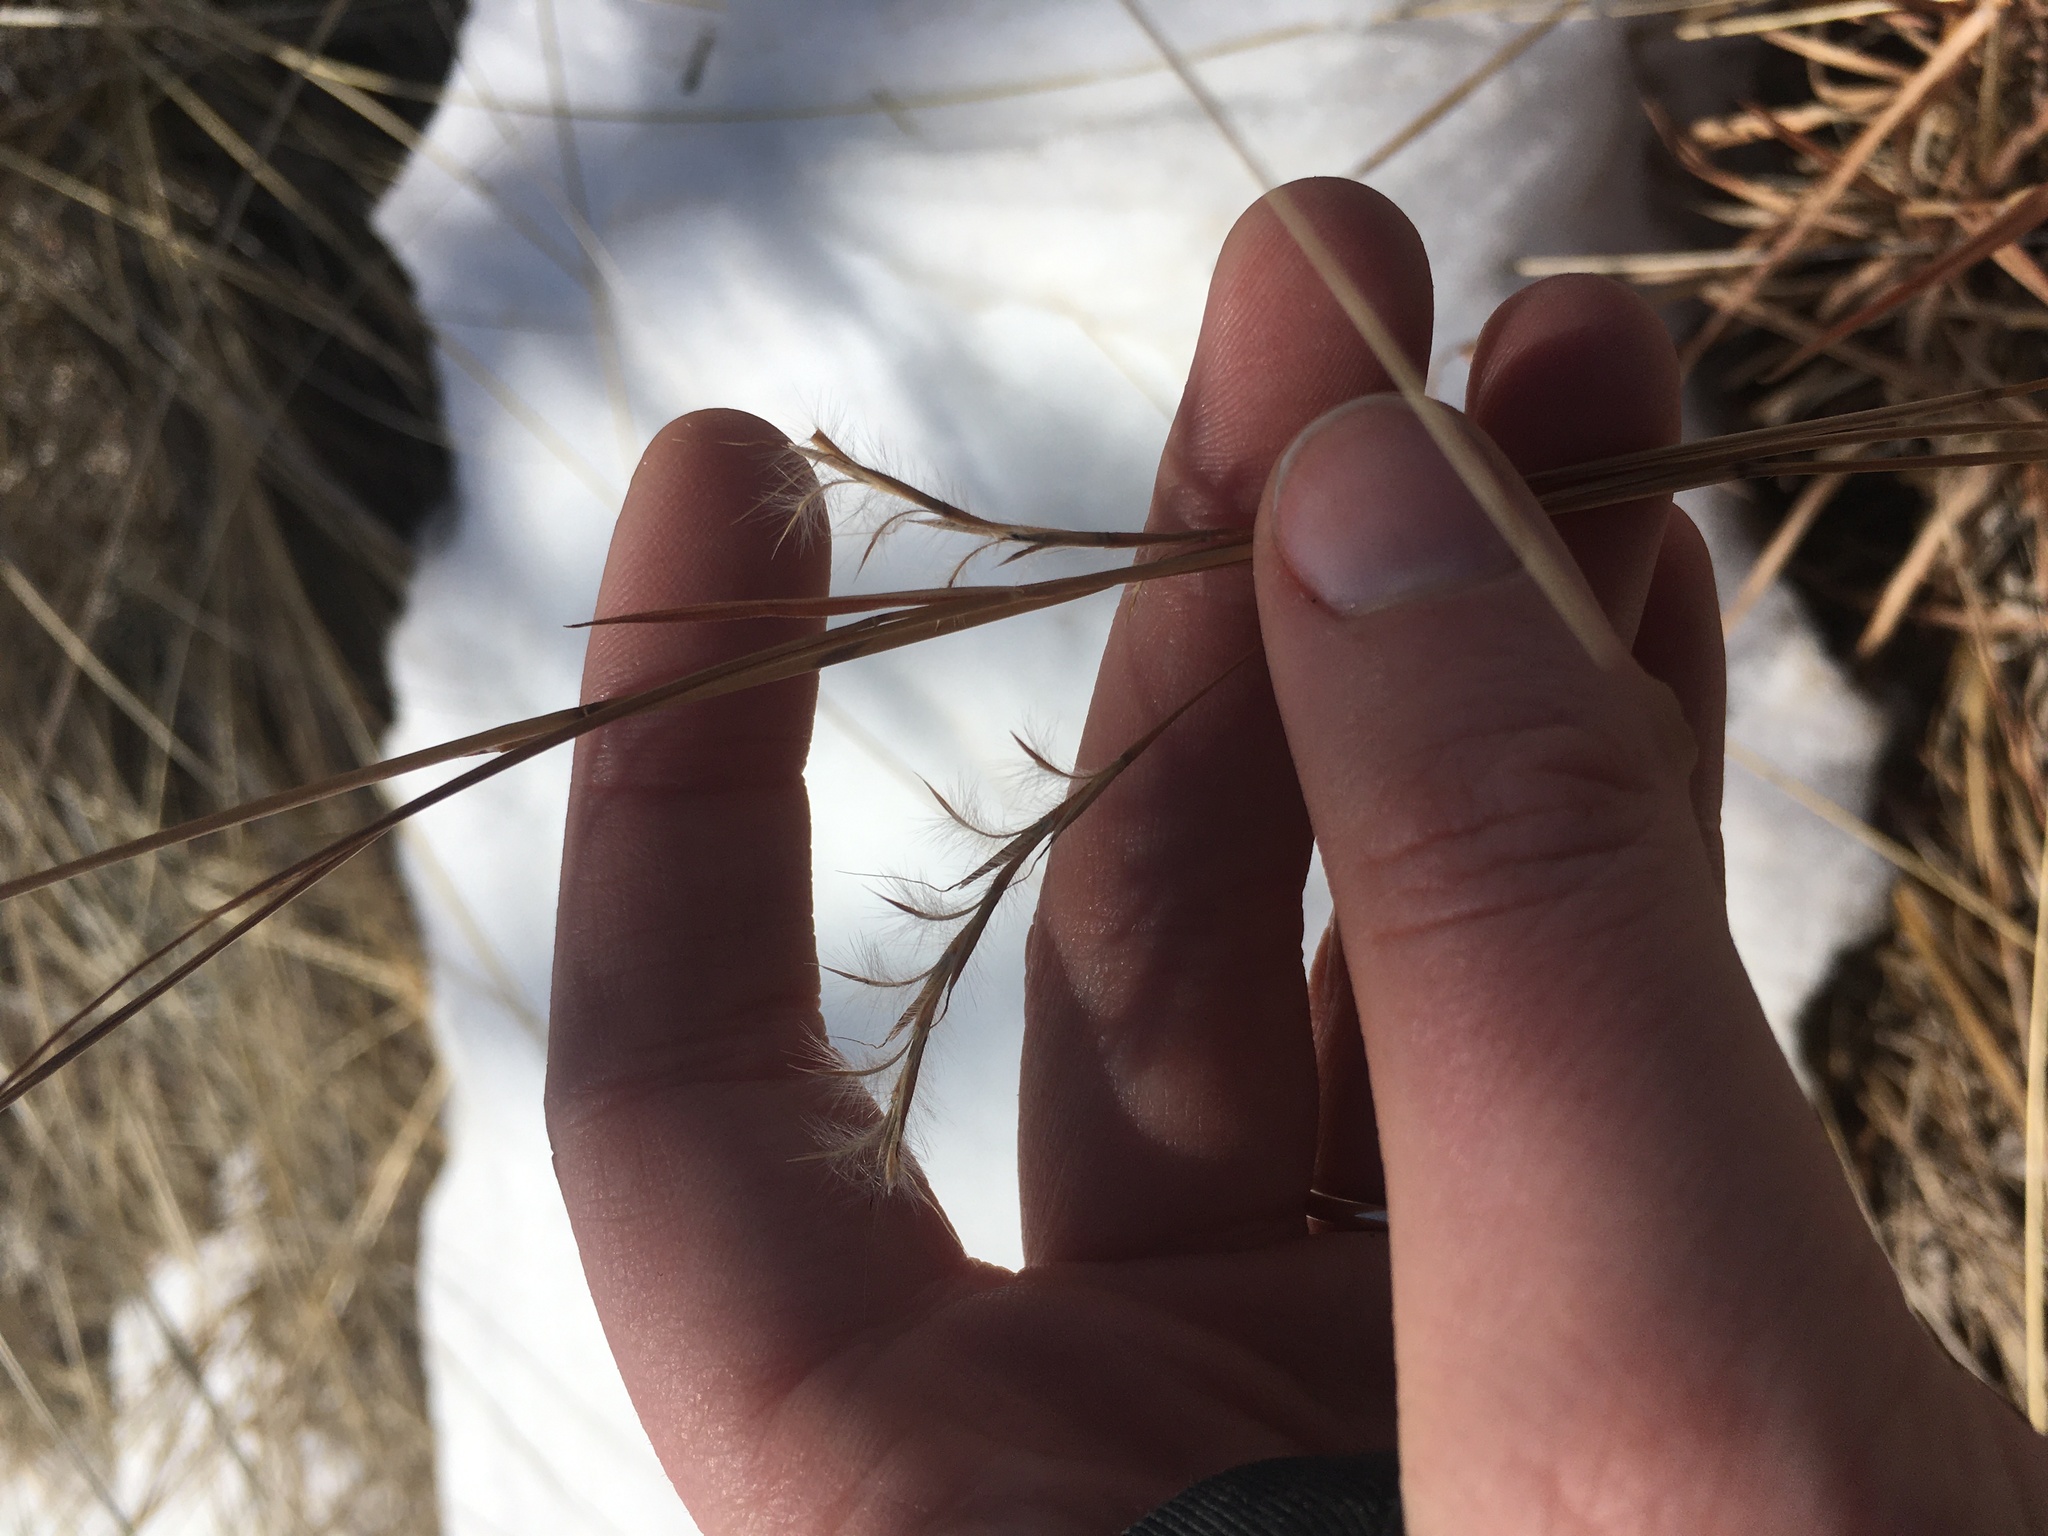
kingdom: Plantae
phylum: Tracheophyta
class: Liliopsida
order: Poales
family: Poaceae
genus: Schizachyrium
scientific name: Schizachyrium scoparium
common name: Little bluestem
